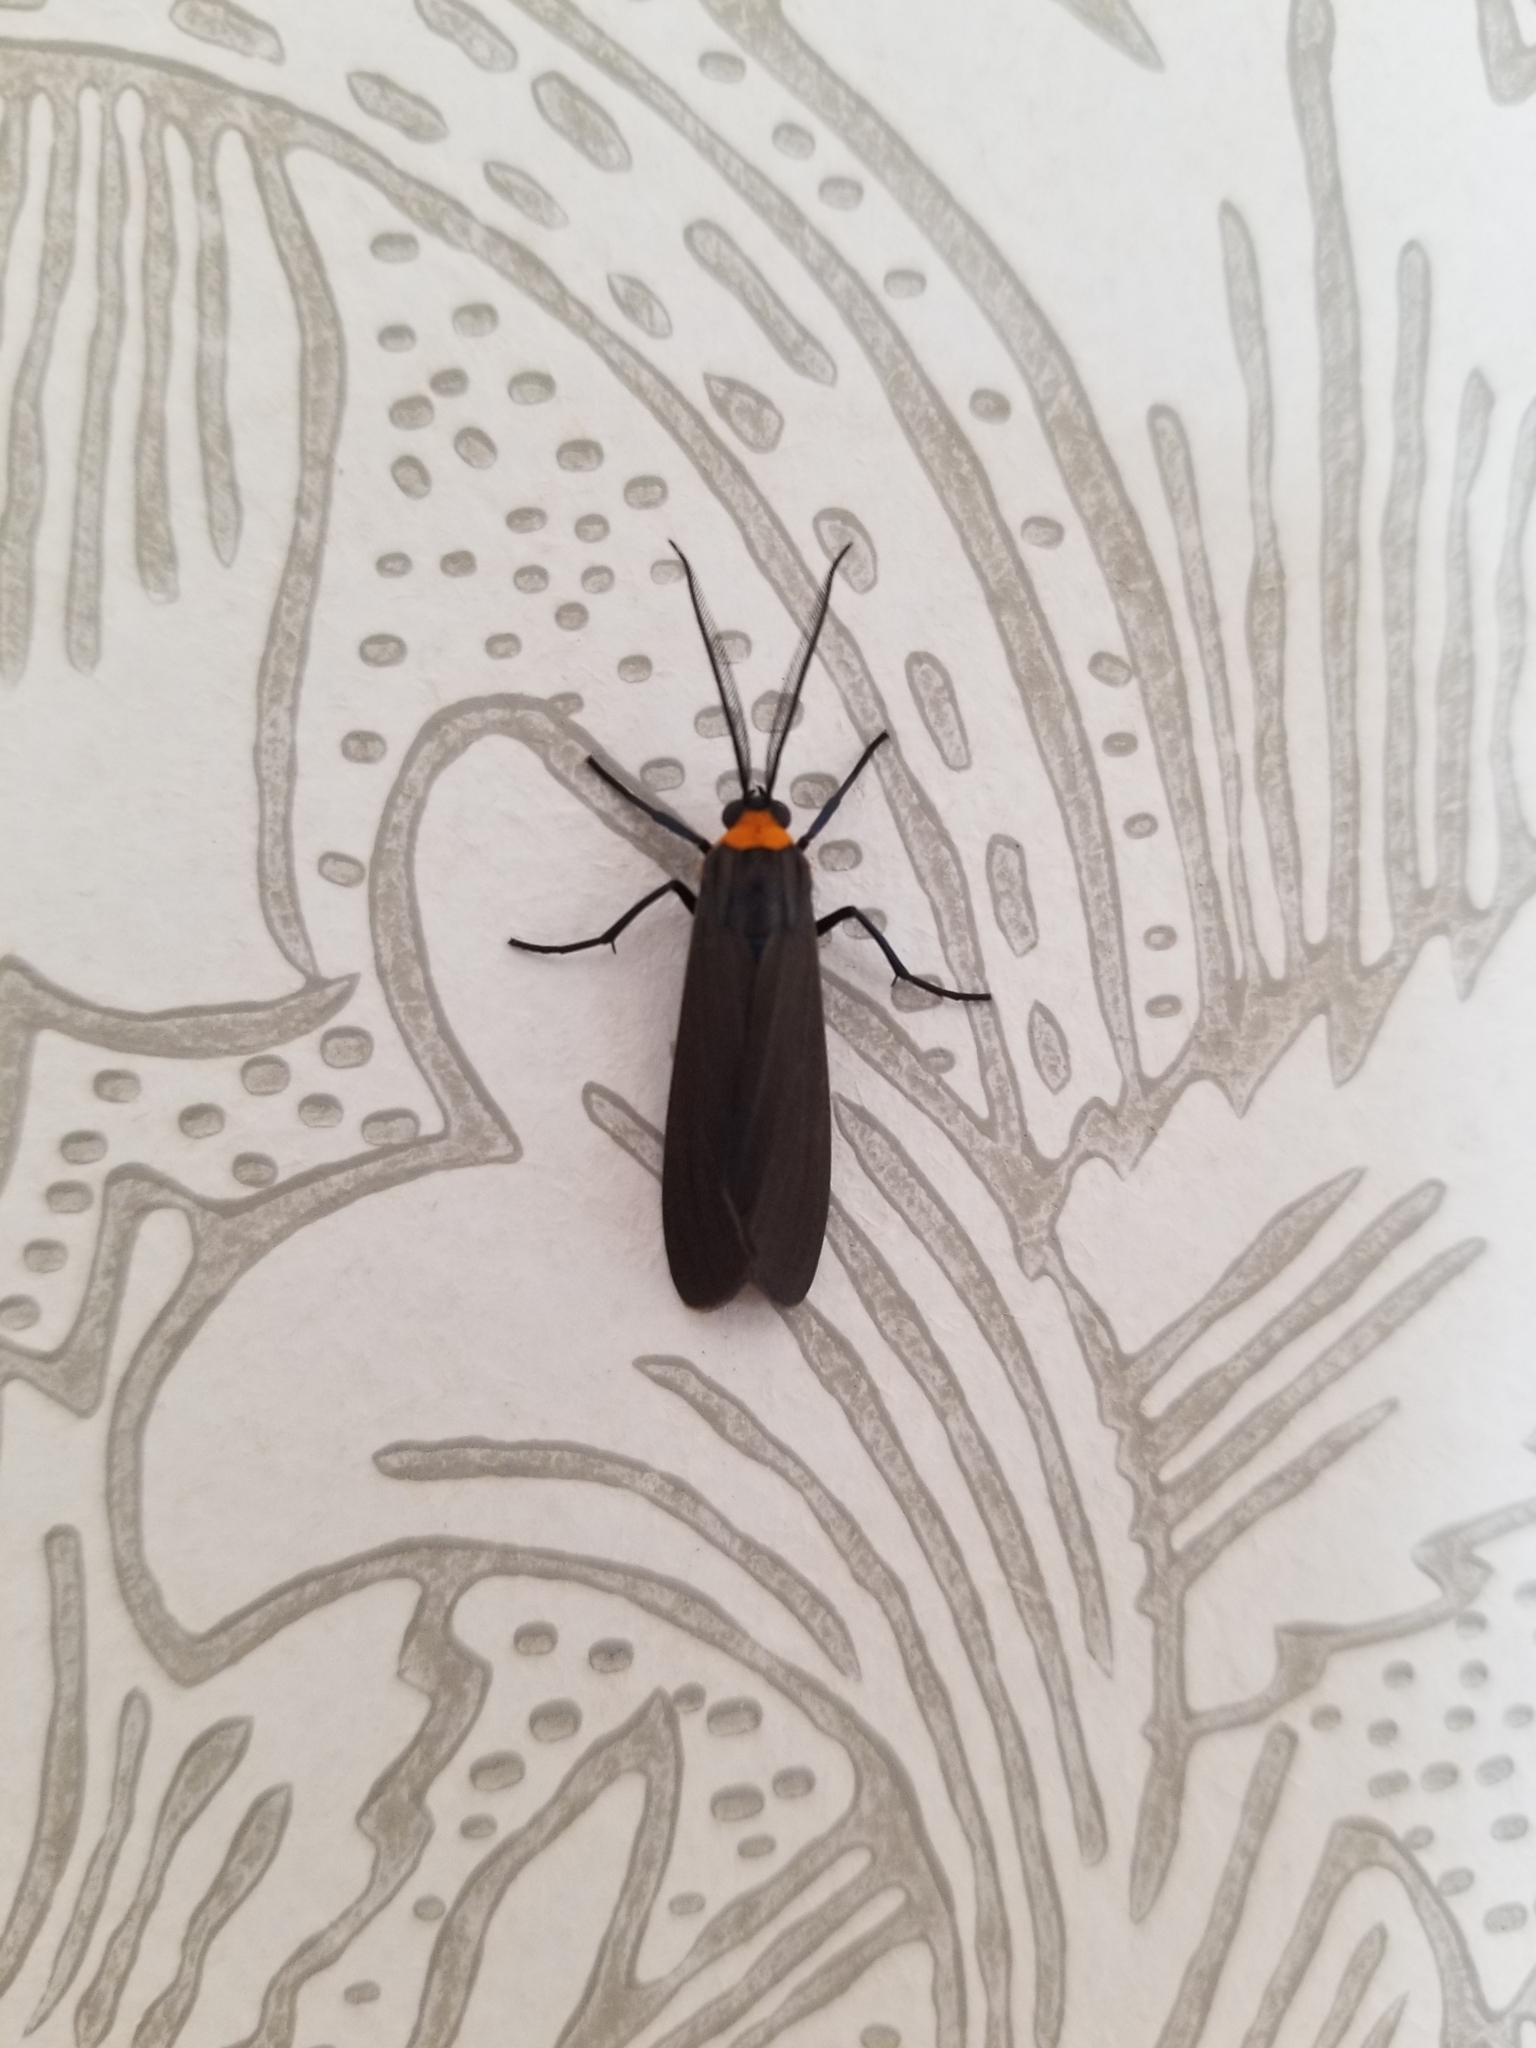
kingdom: Animalia
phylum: Arthropoda
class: Insecta
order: Lepidoptera
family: Erebidae
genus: Cisseps
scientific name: Cisseps fulvicollis
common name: Yellow-collared scape moth
